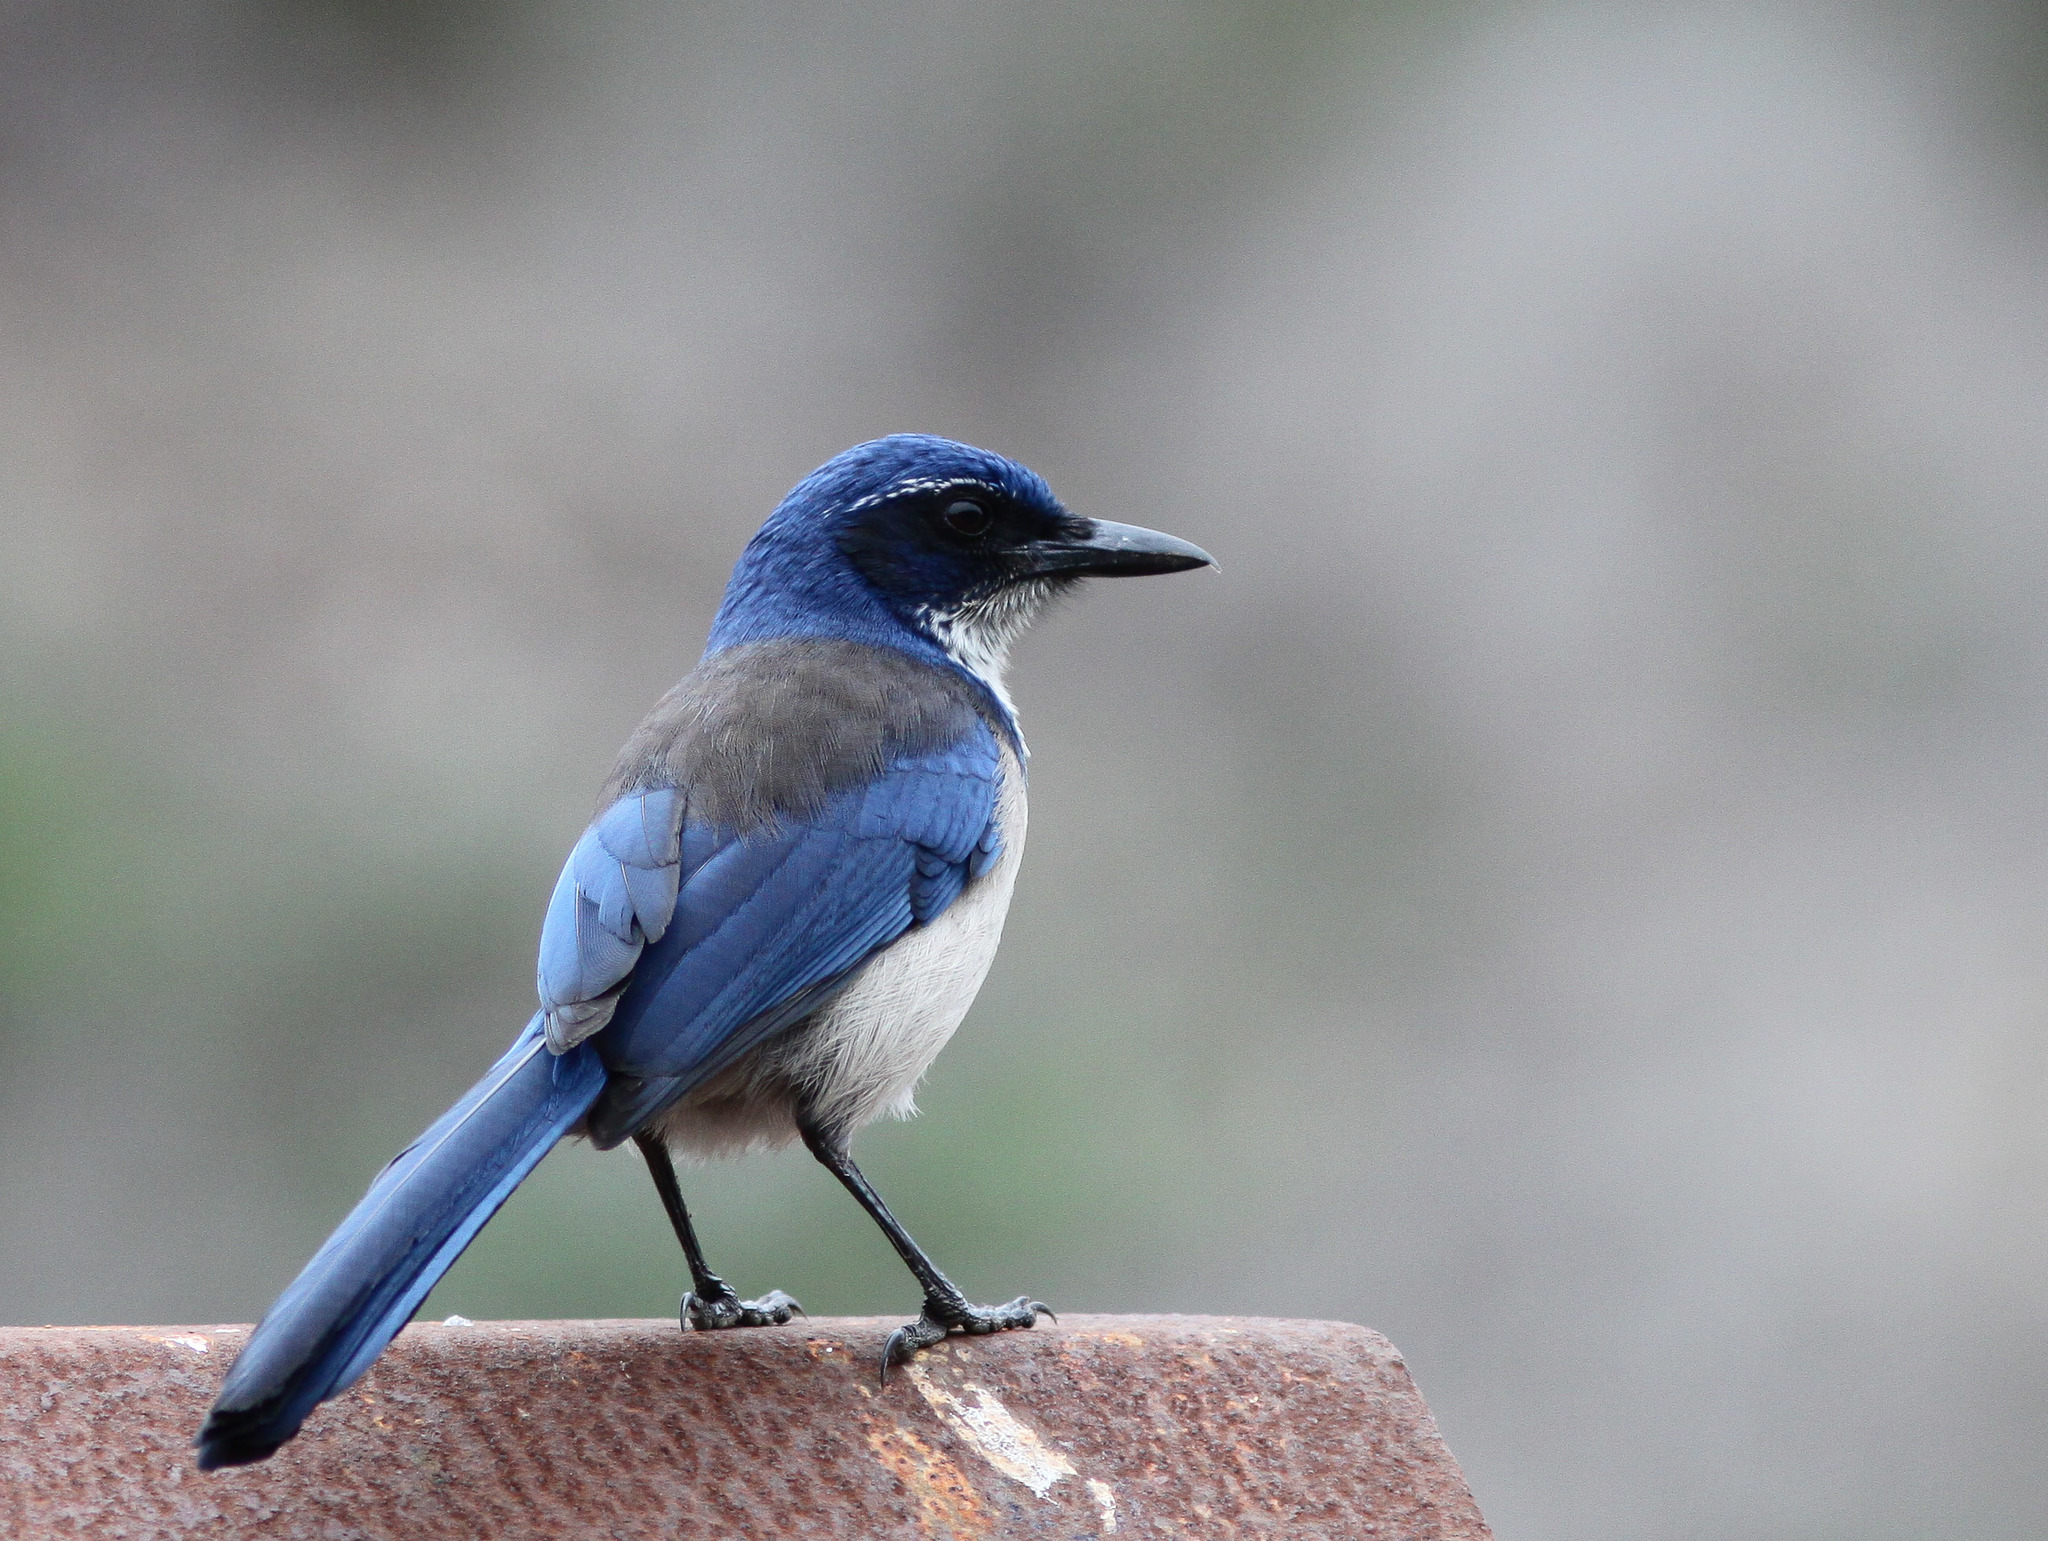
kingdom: Animalia
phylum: Chordata
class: Aves
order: Passeriformes
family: Corvidae
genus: Aphelocoma
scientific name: Aphelocoma insularis
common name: Island scrub-jay
